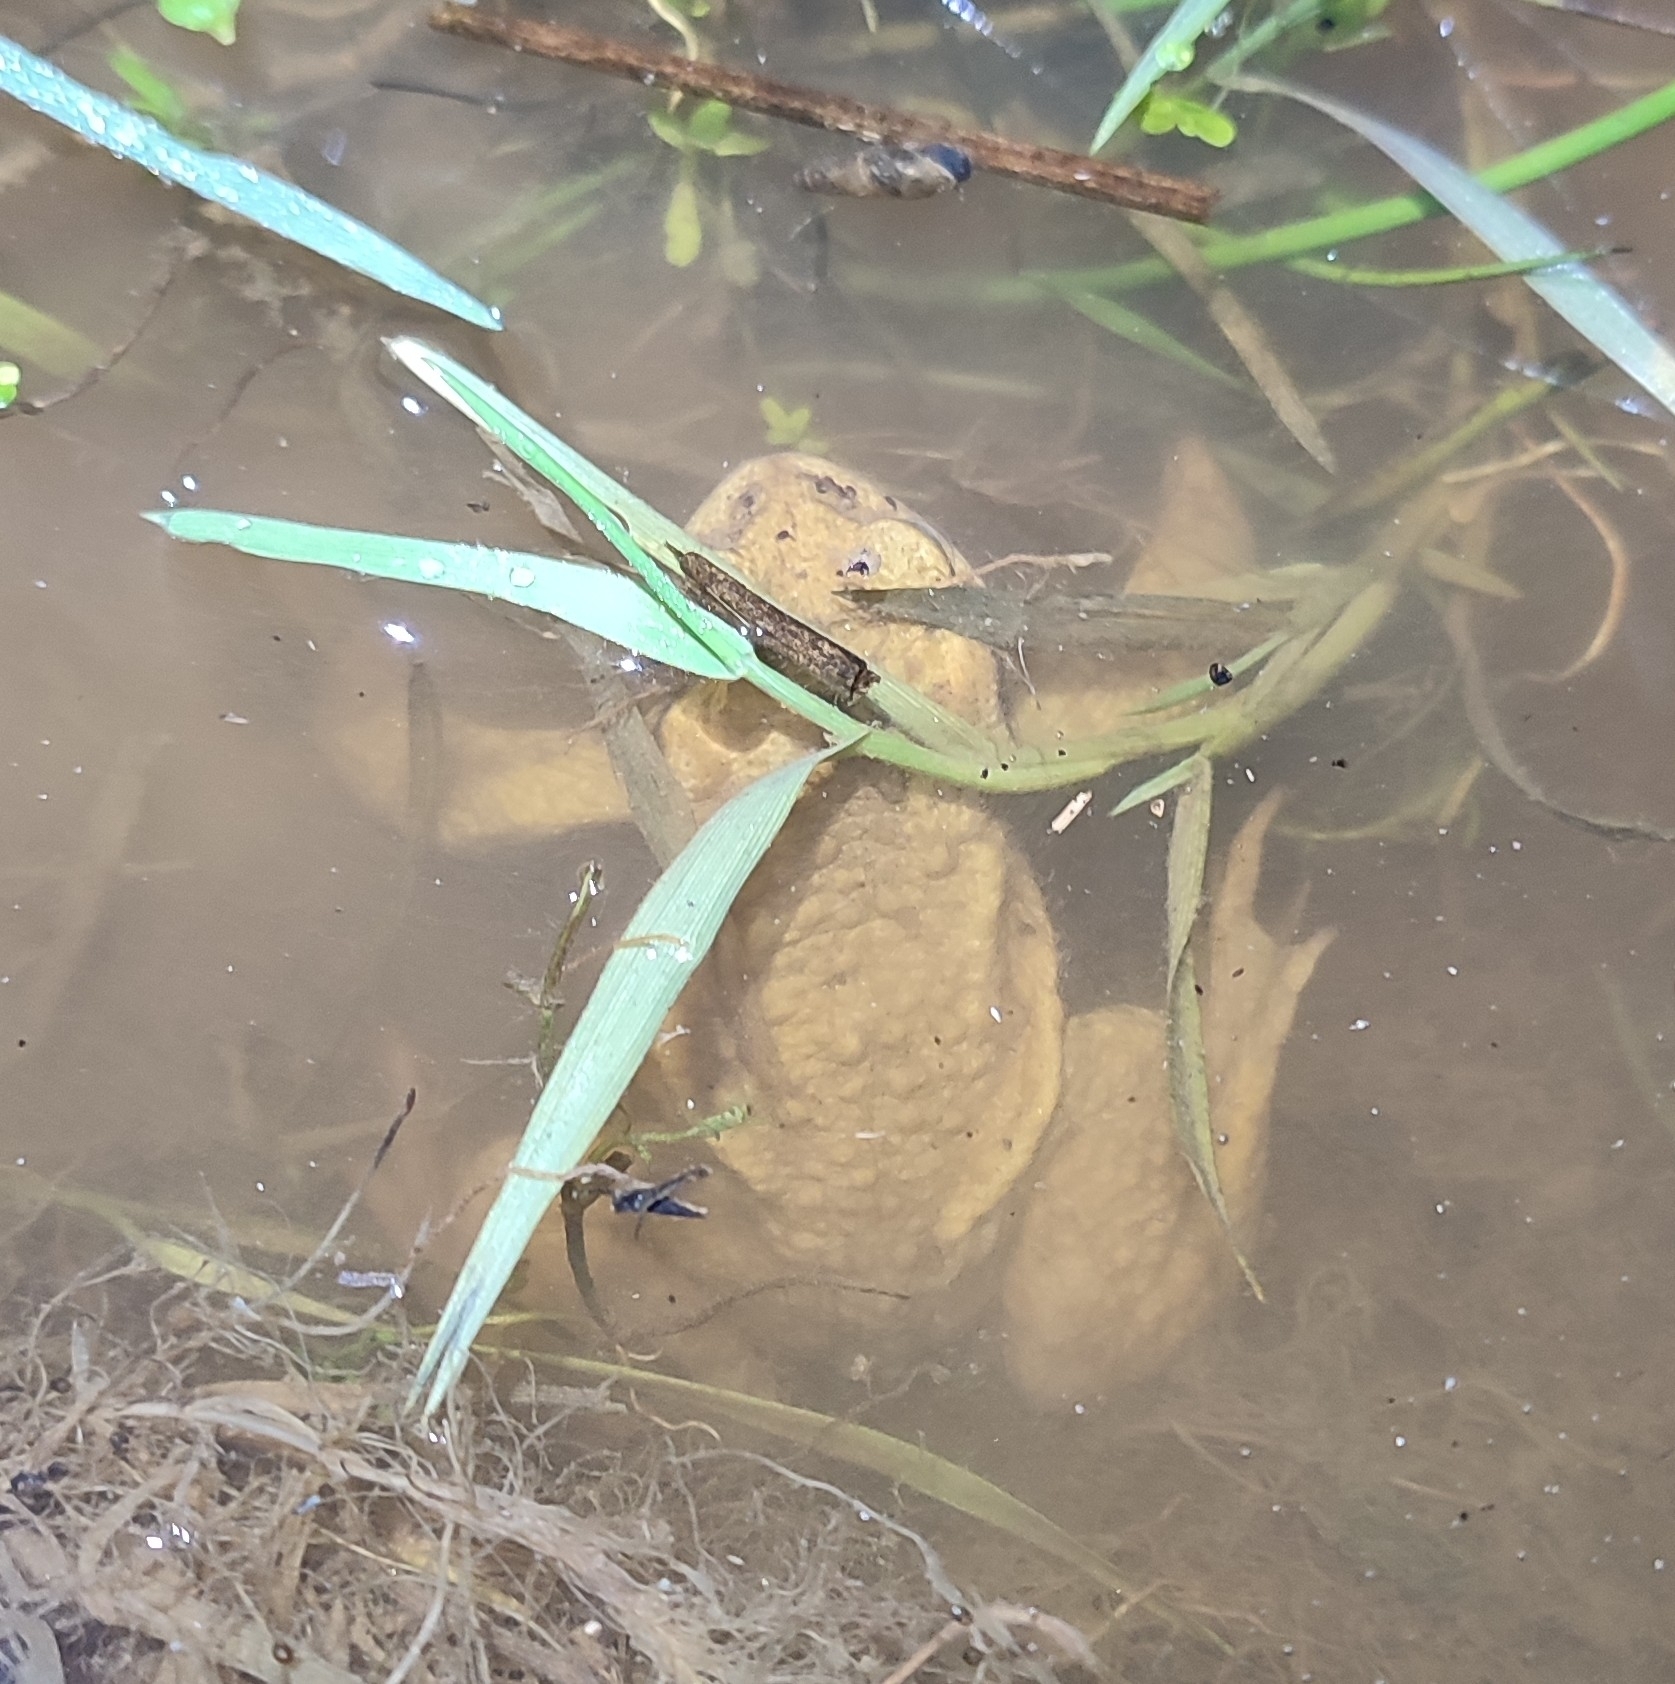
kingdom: Animalia
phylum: Chordata
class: Amphibia
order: Anura
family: Bufonidae
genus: Bufo
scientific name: Bufo spinosus
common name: Western common toad
